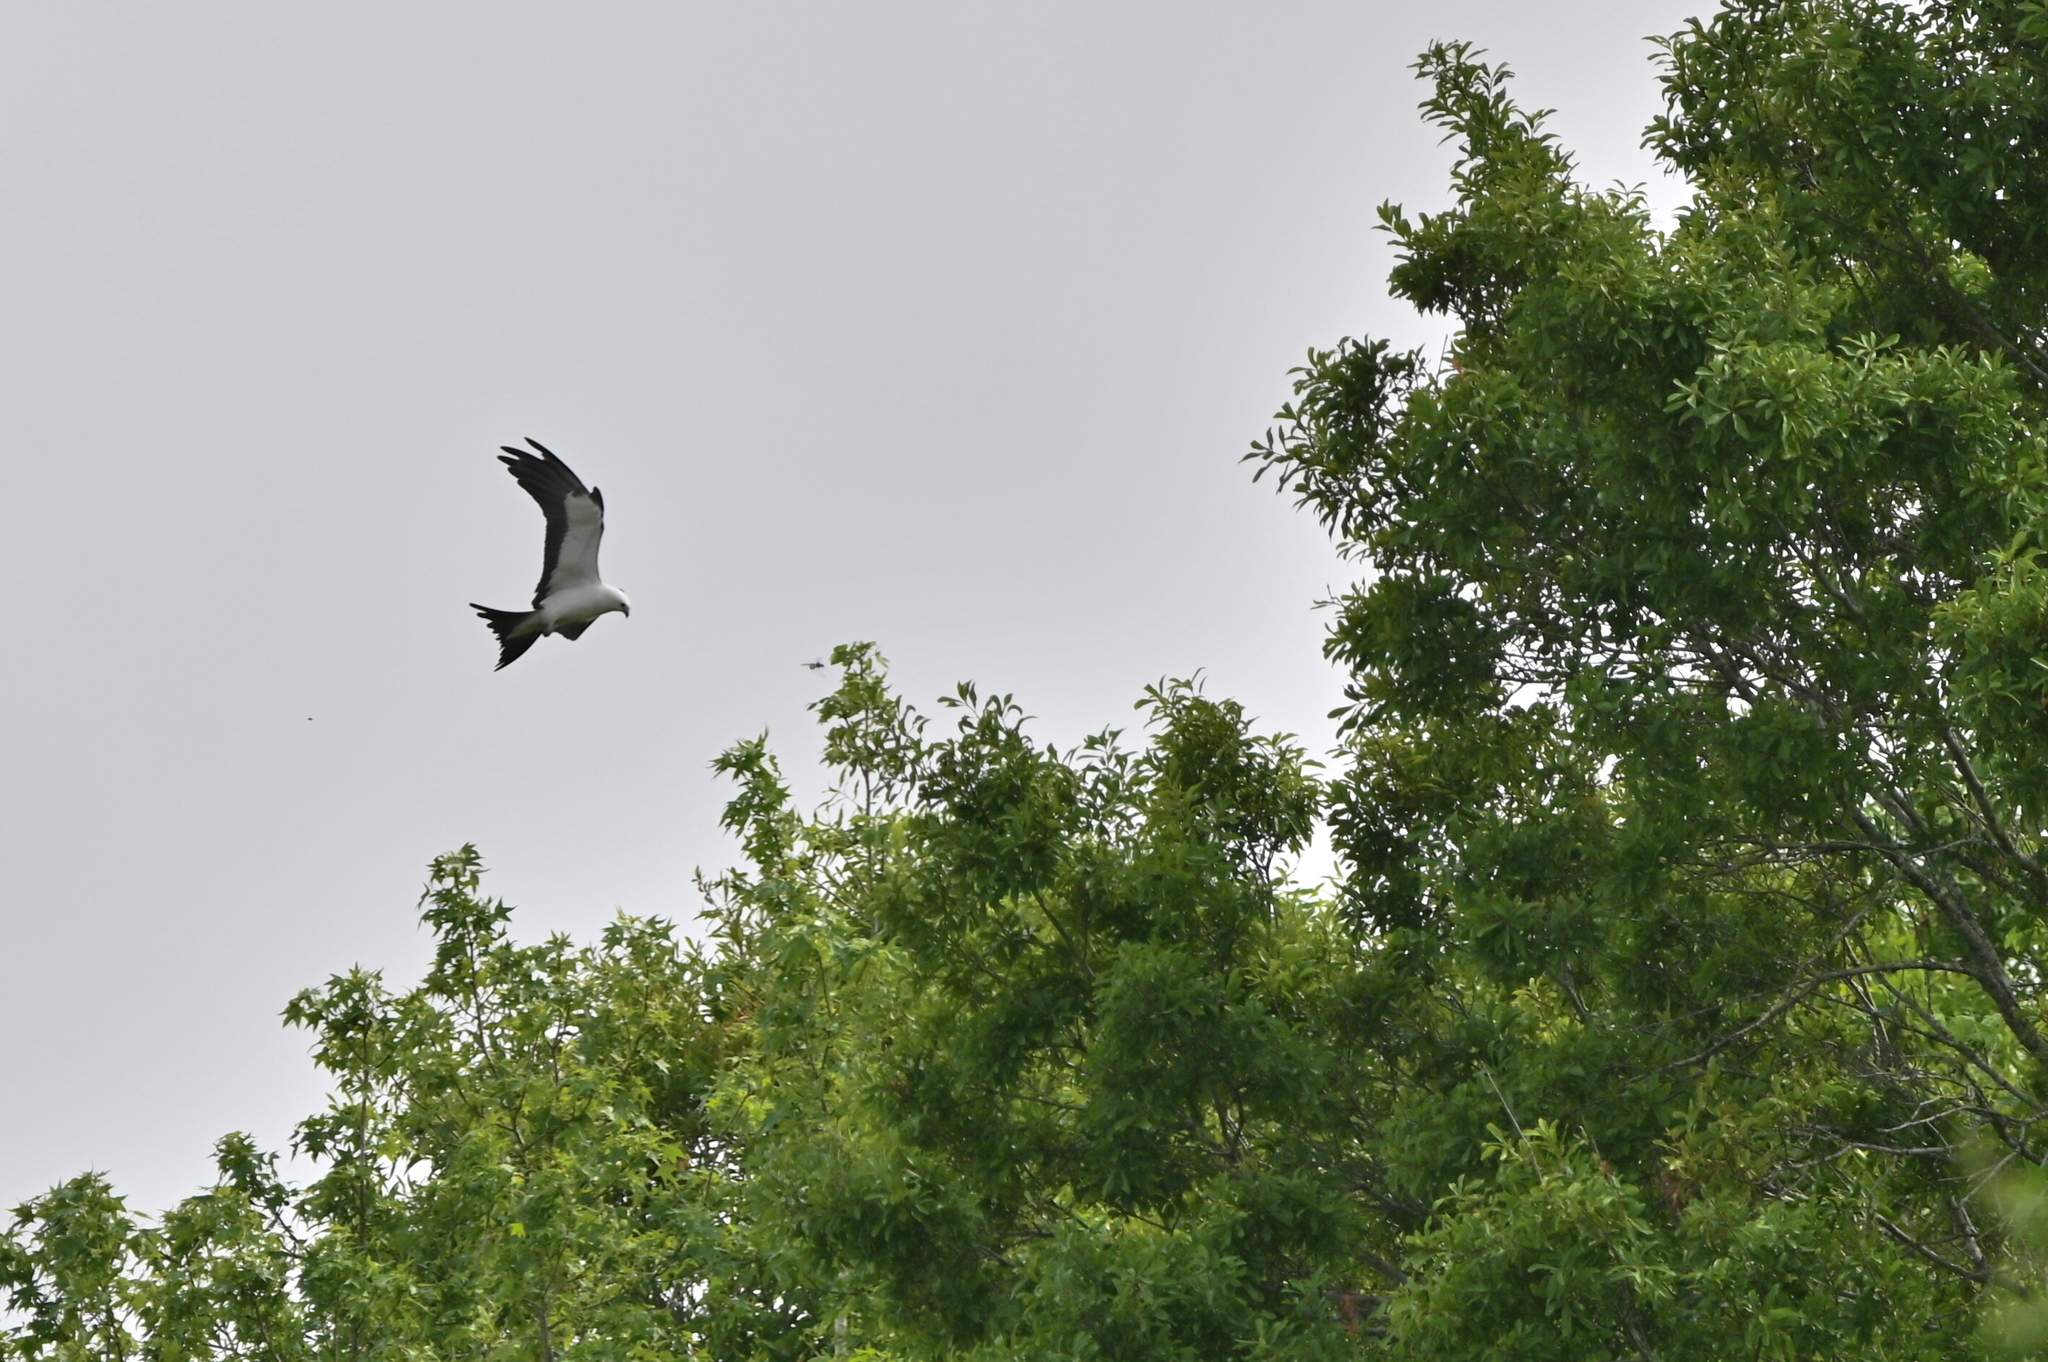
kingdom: Animalia
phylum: Chordata
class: Aves
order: Accipitriformes
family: Accipitridae
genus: Elanoides
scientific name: Elanoides forficatus
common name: Swallow-tailed kite
